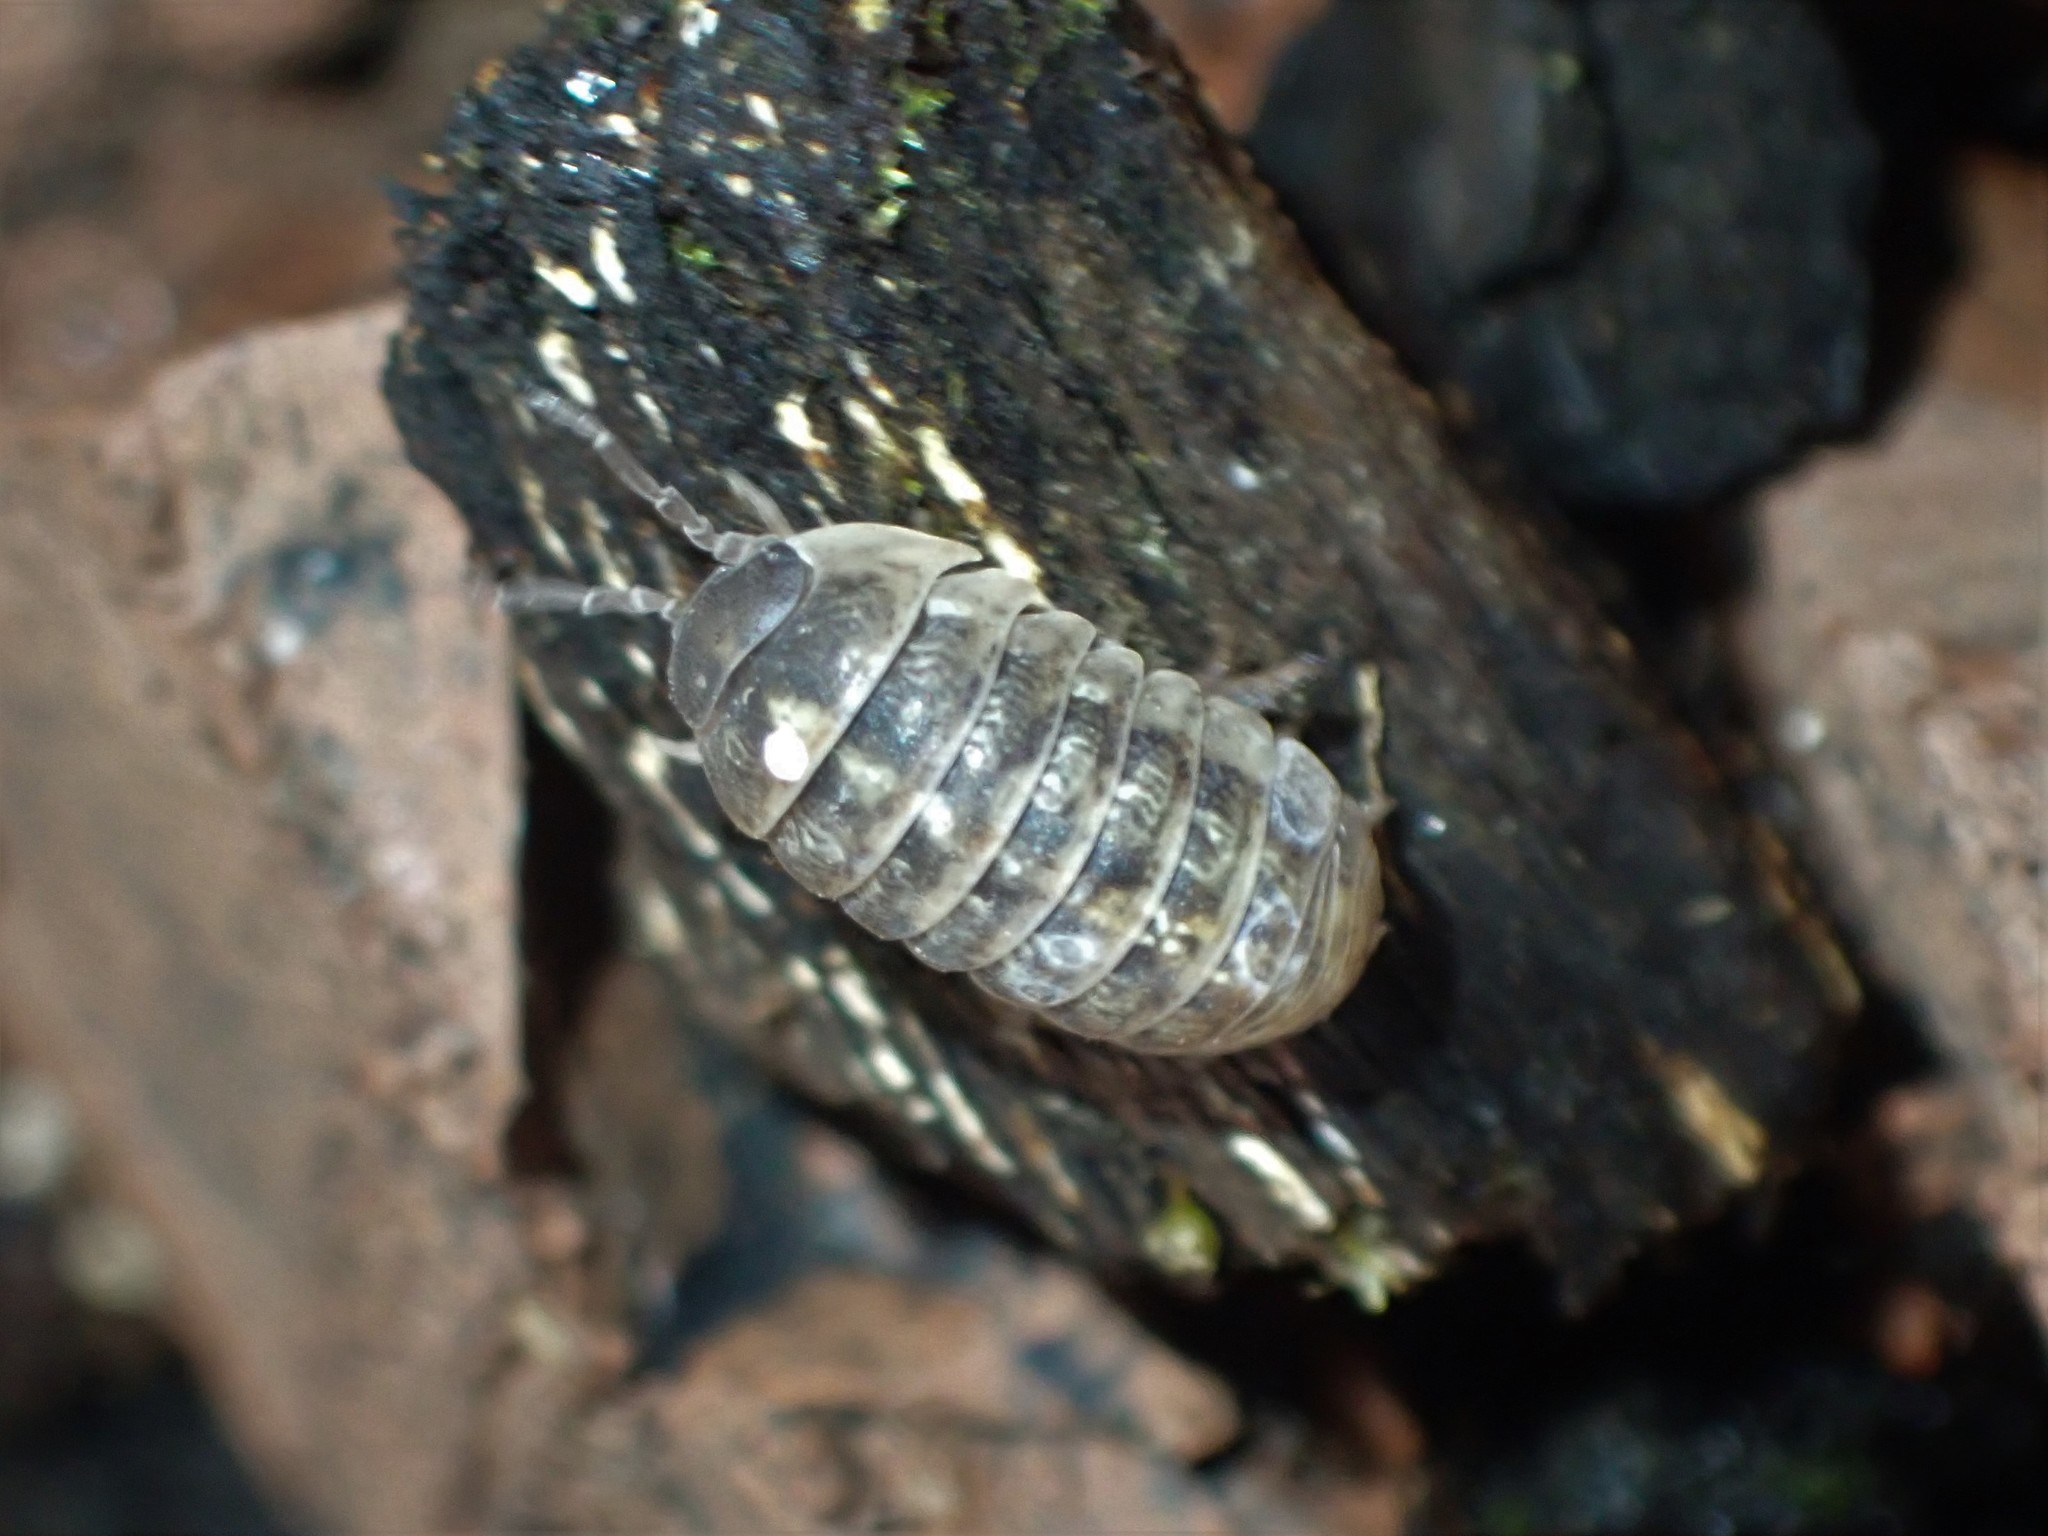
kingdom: Animalia
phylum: Arthropoda
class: Malacostraca
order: Isopoda
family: Armadillidiidae
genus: Armadillidium
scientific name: Armadillidium vulgare
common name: Common pill woodlouse
